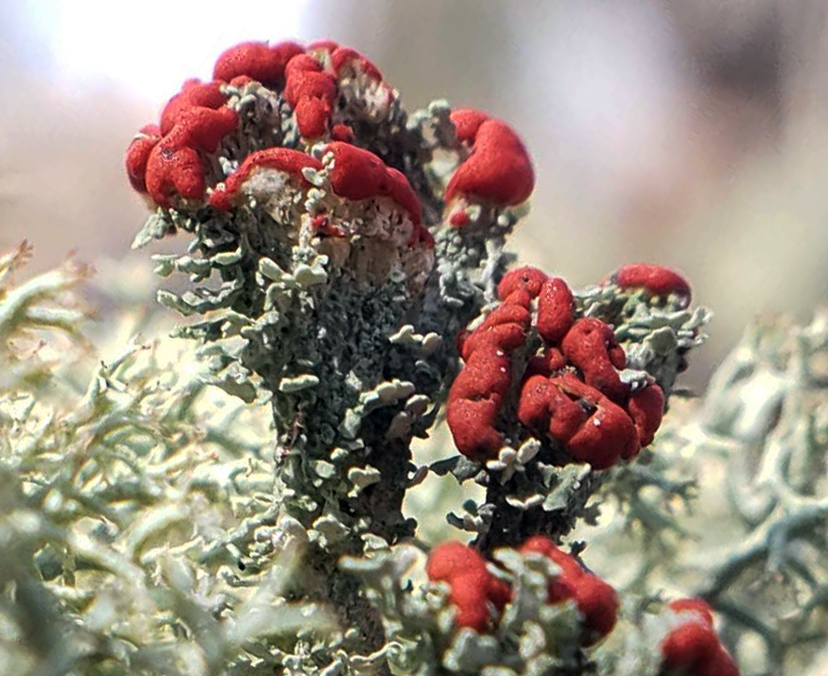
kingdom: Fungi
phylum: Ascomycota
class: Lecanoromycetes
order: Lecanorales
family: Cladoniaceae
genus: Cladonia
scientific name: Cladonia cristatella
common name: British soldier lichen
